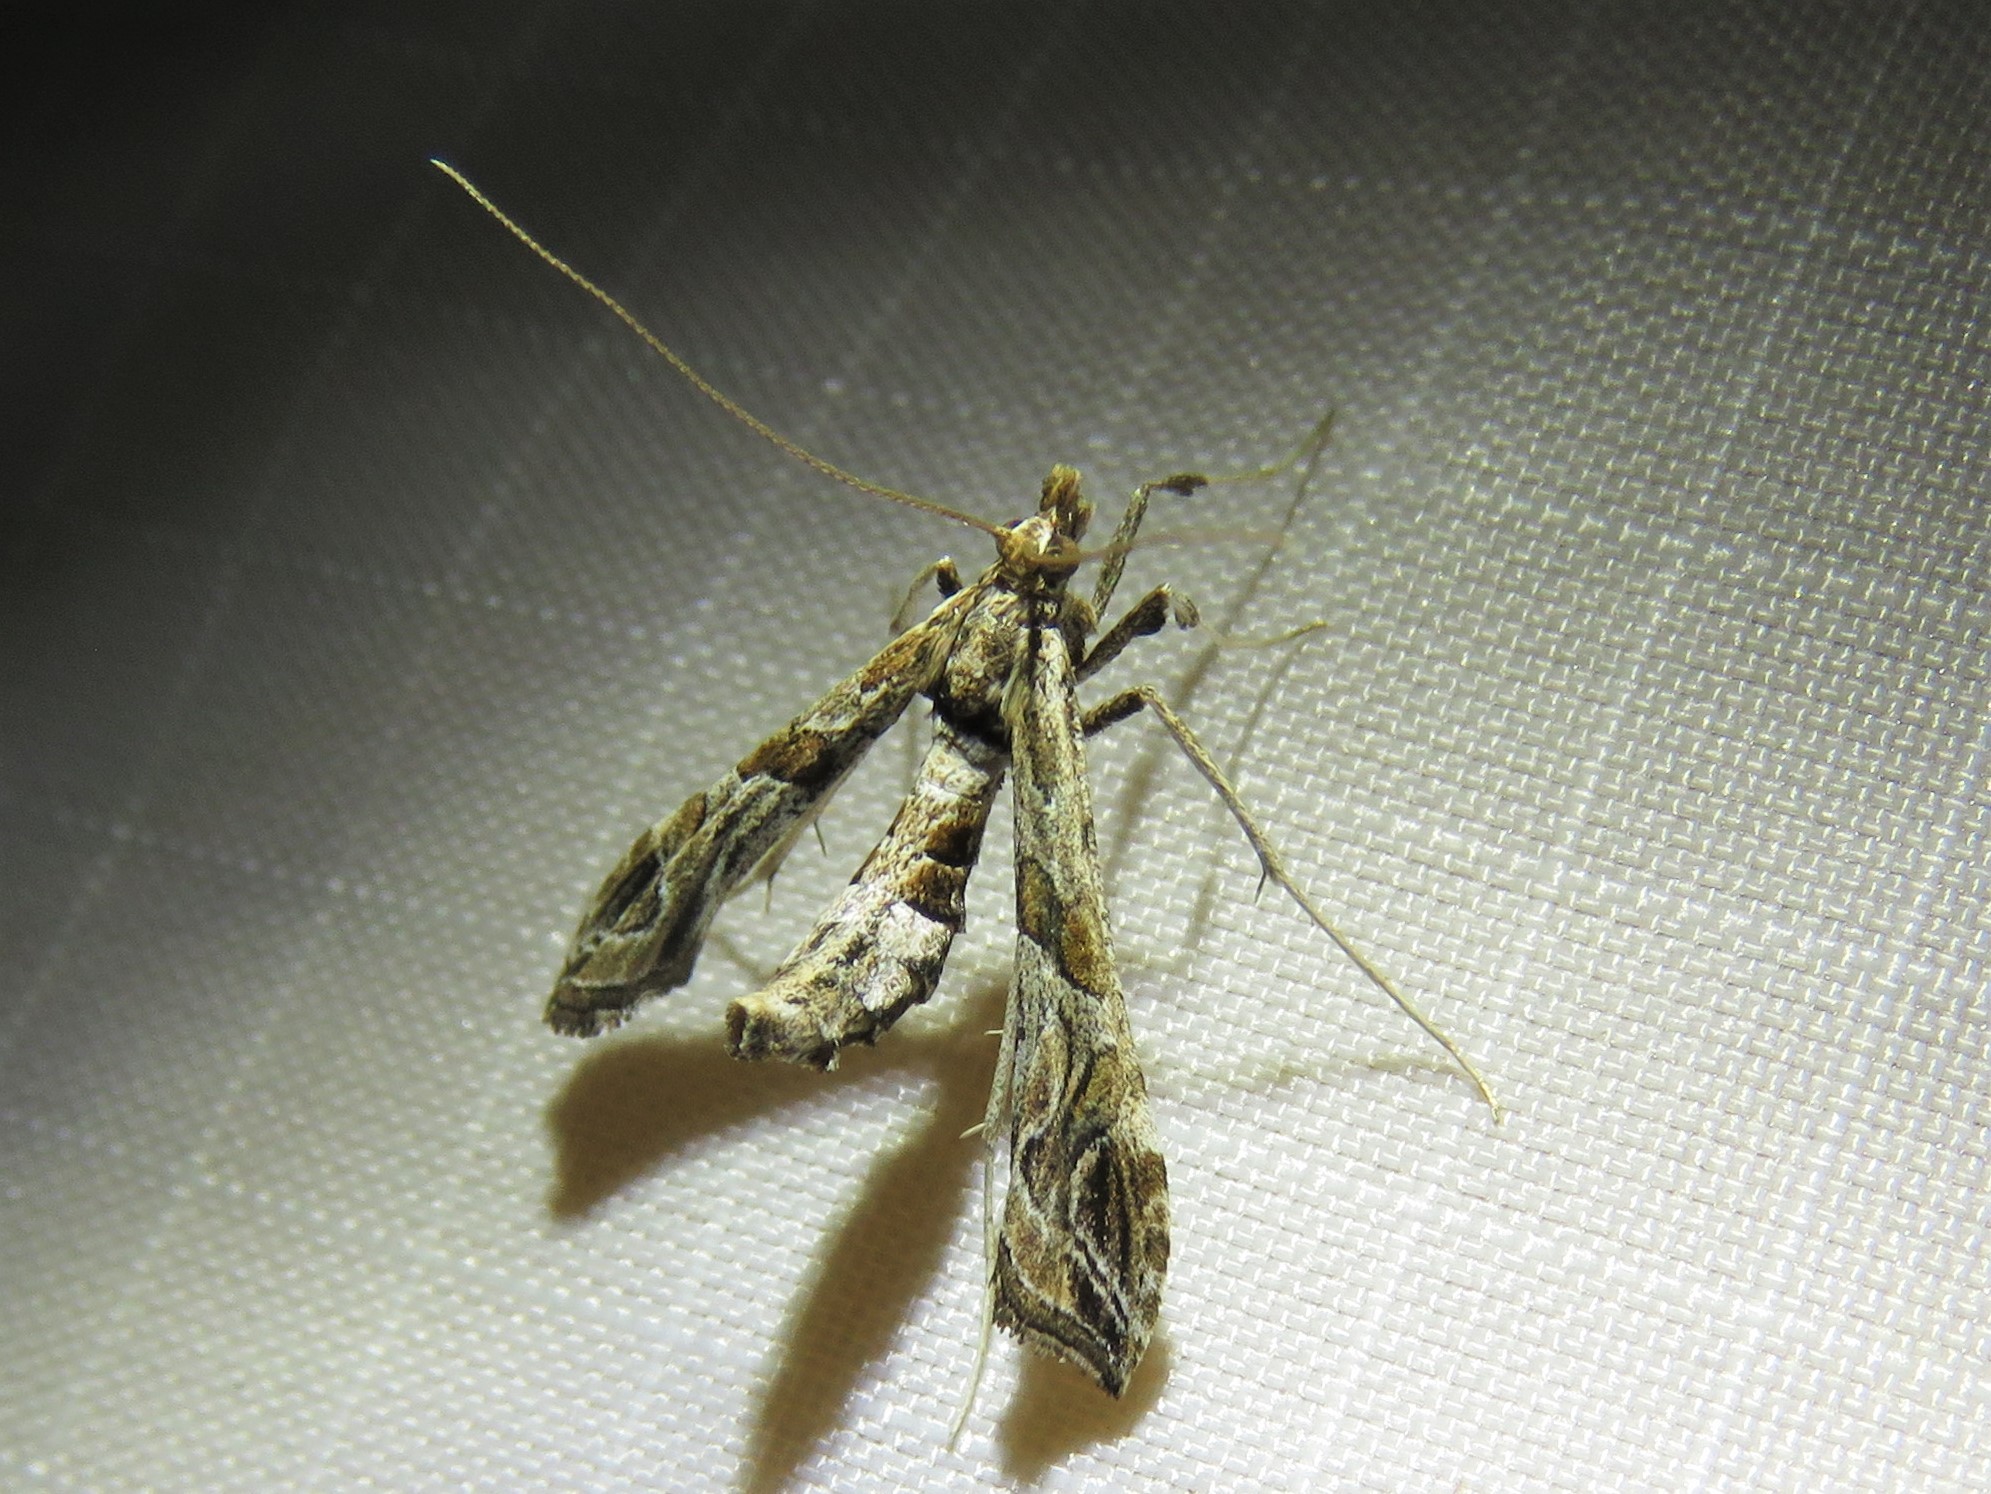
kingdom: Animalia
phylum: Arthropoda
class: Insecta
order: Lepidoptera
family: Crambidae
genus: Lineodes
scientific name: Lineodes interrupta
